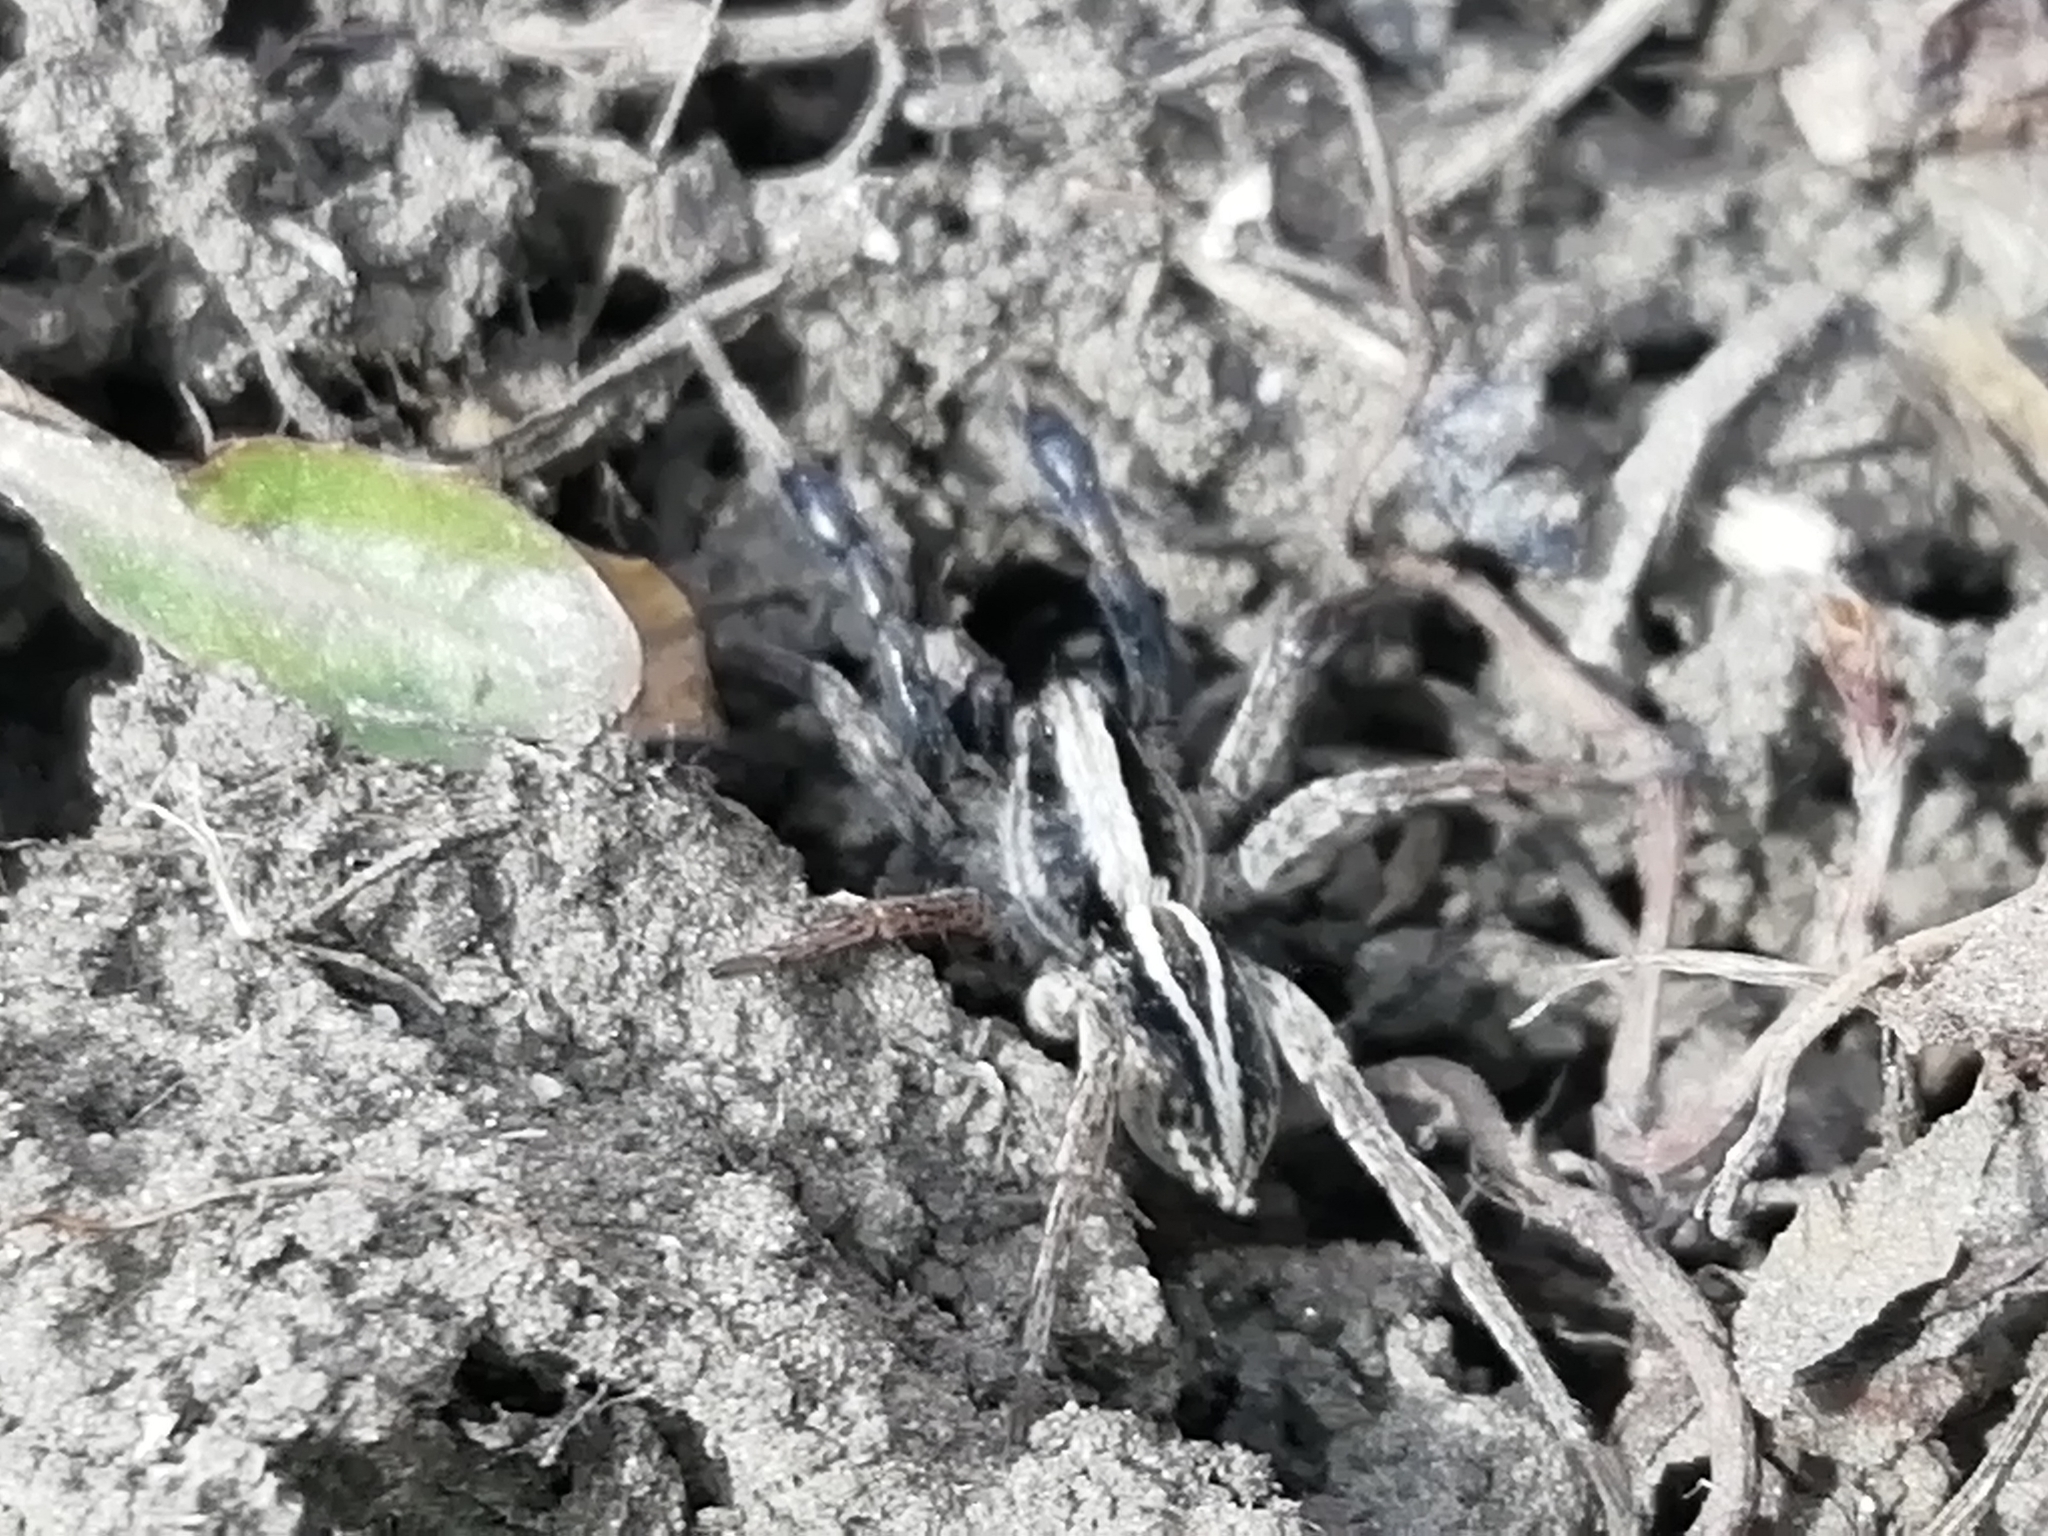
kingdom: Animalia
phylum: Arthropoda
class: Arachnida
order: Araneae
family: Lycosidae
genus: Alopecosa
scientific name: Alopecosa cuneata
